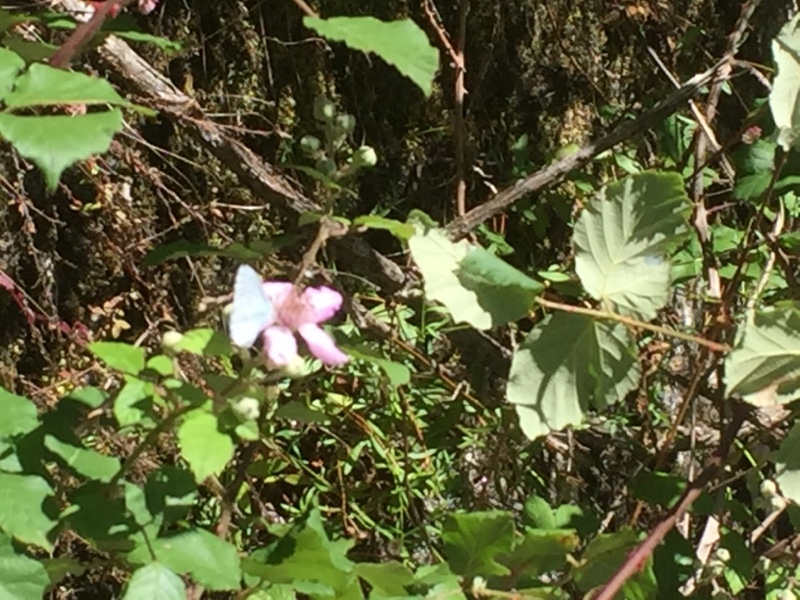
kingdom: Animalia
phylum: Arthropoda
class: Insecta
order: Lepidoptera
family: Lycaenidae
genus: Celastrina
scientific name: Celastrina argiolus
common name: Holly blue
